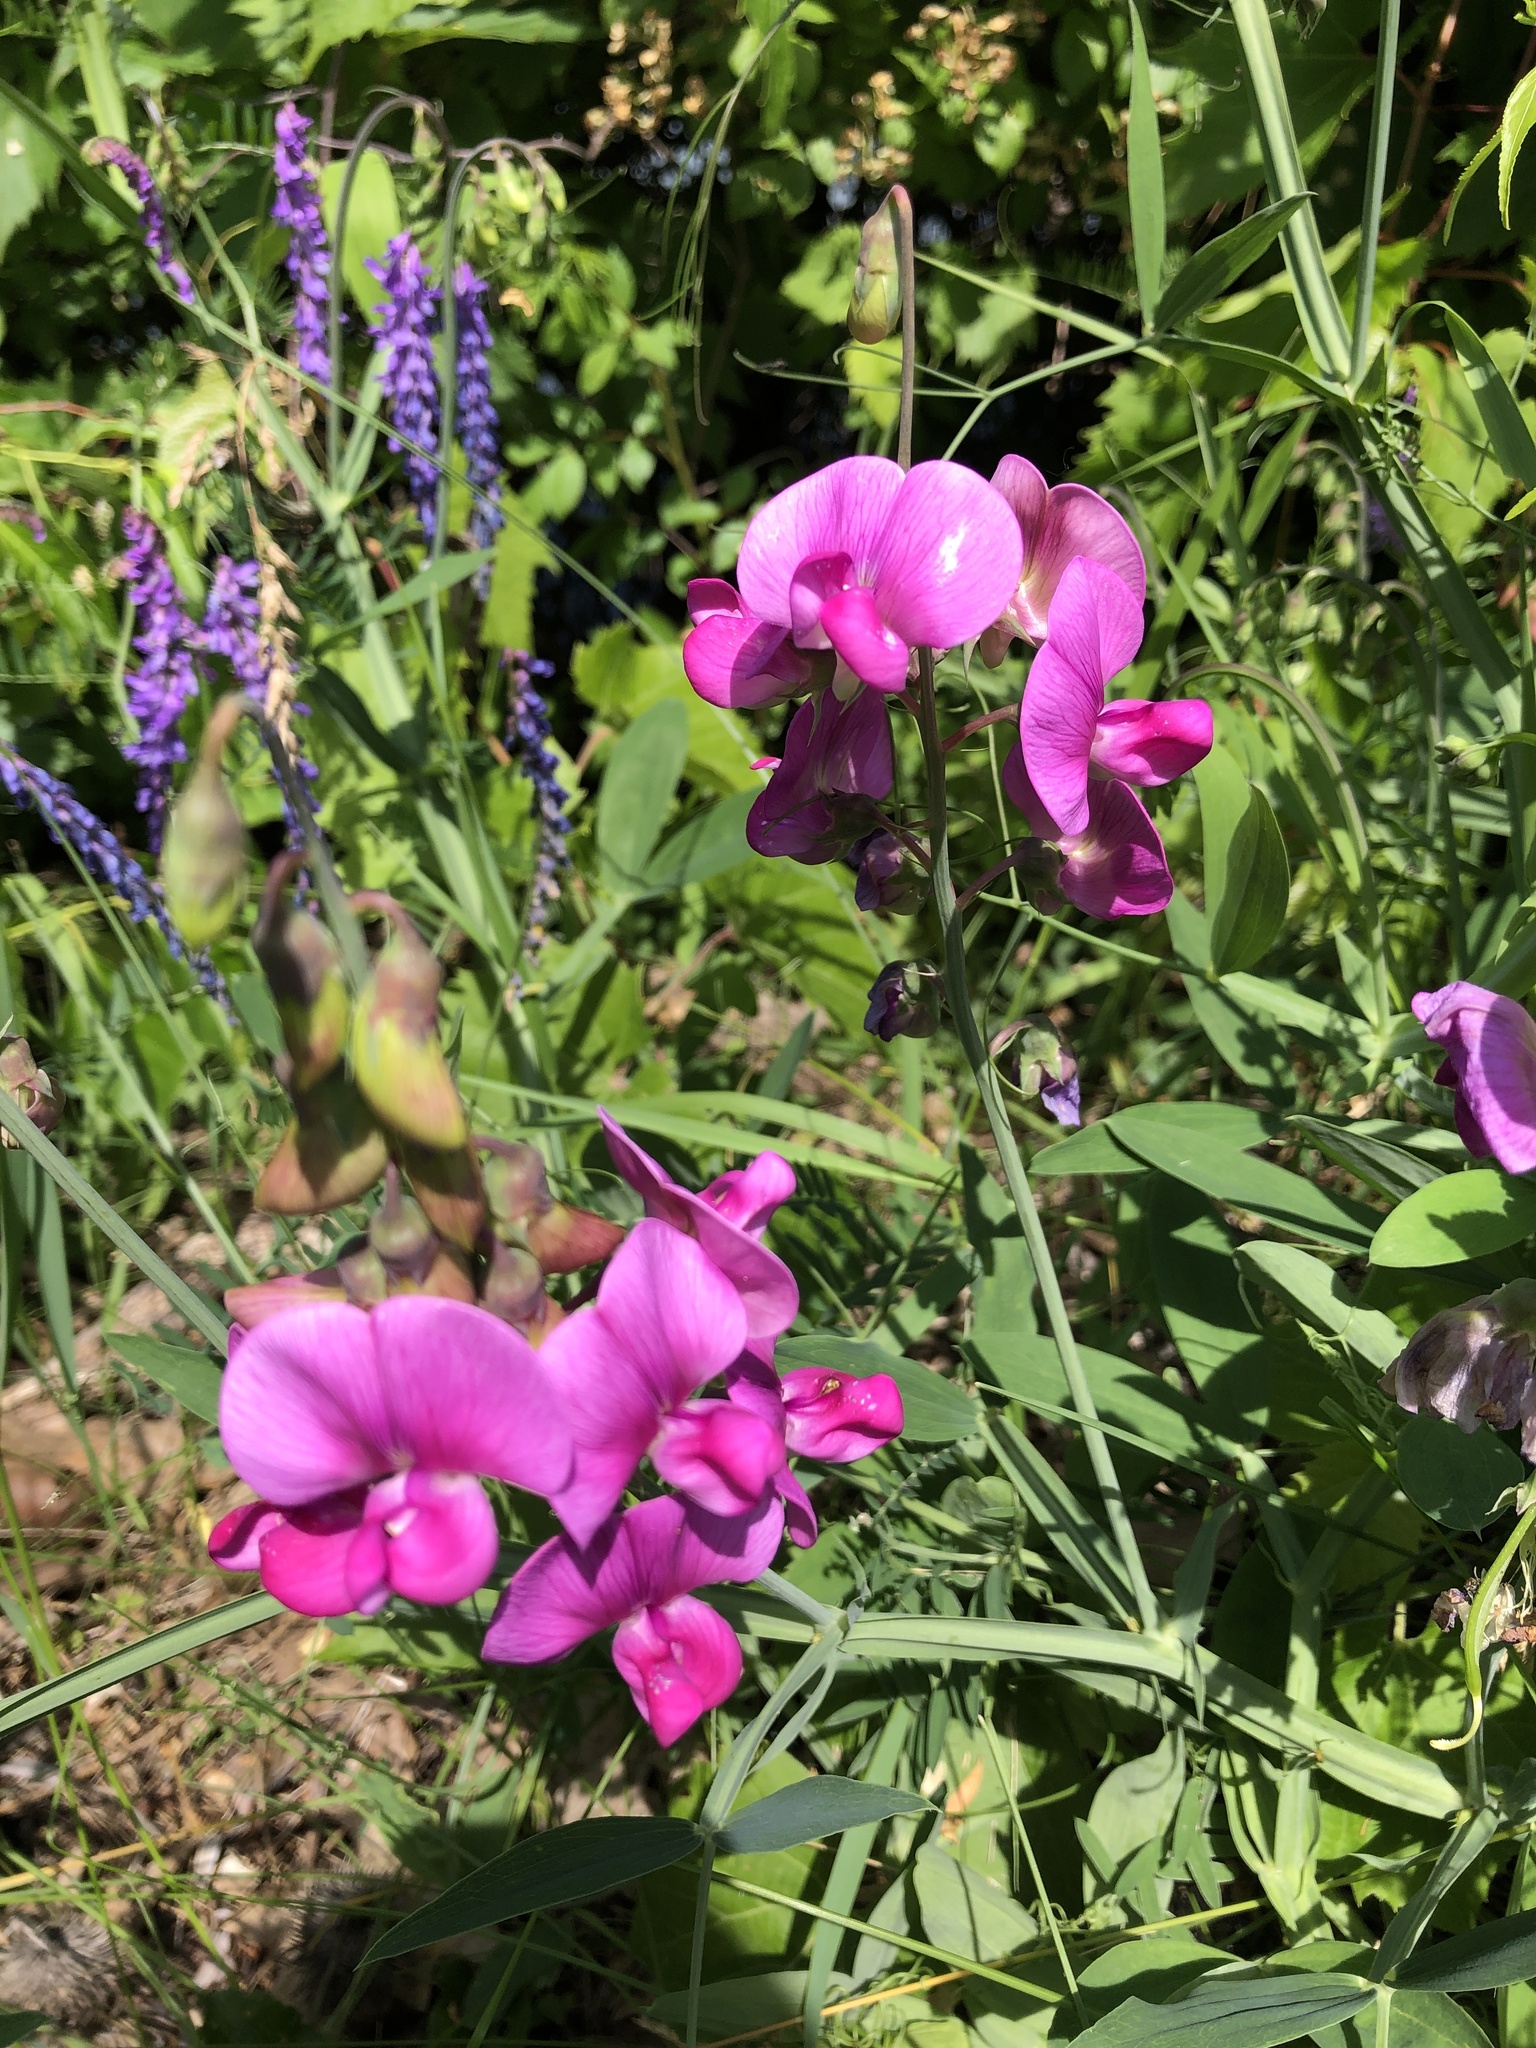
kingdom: Plantae
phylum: Tracheophyta
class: Magnoliopsida
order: Fabales
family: Fabaceae
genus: Lathyrus
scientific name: Lathyrus latifolius
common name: Perennial pea
